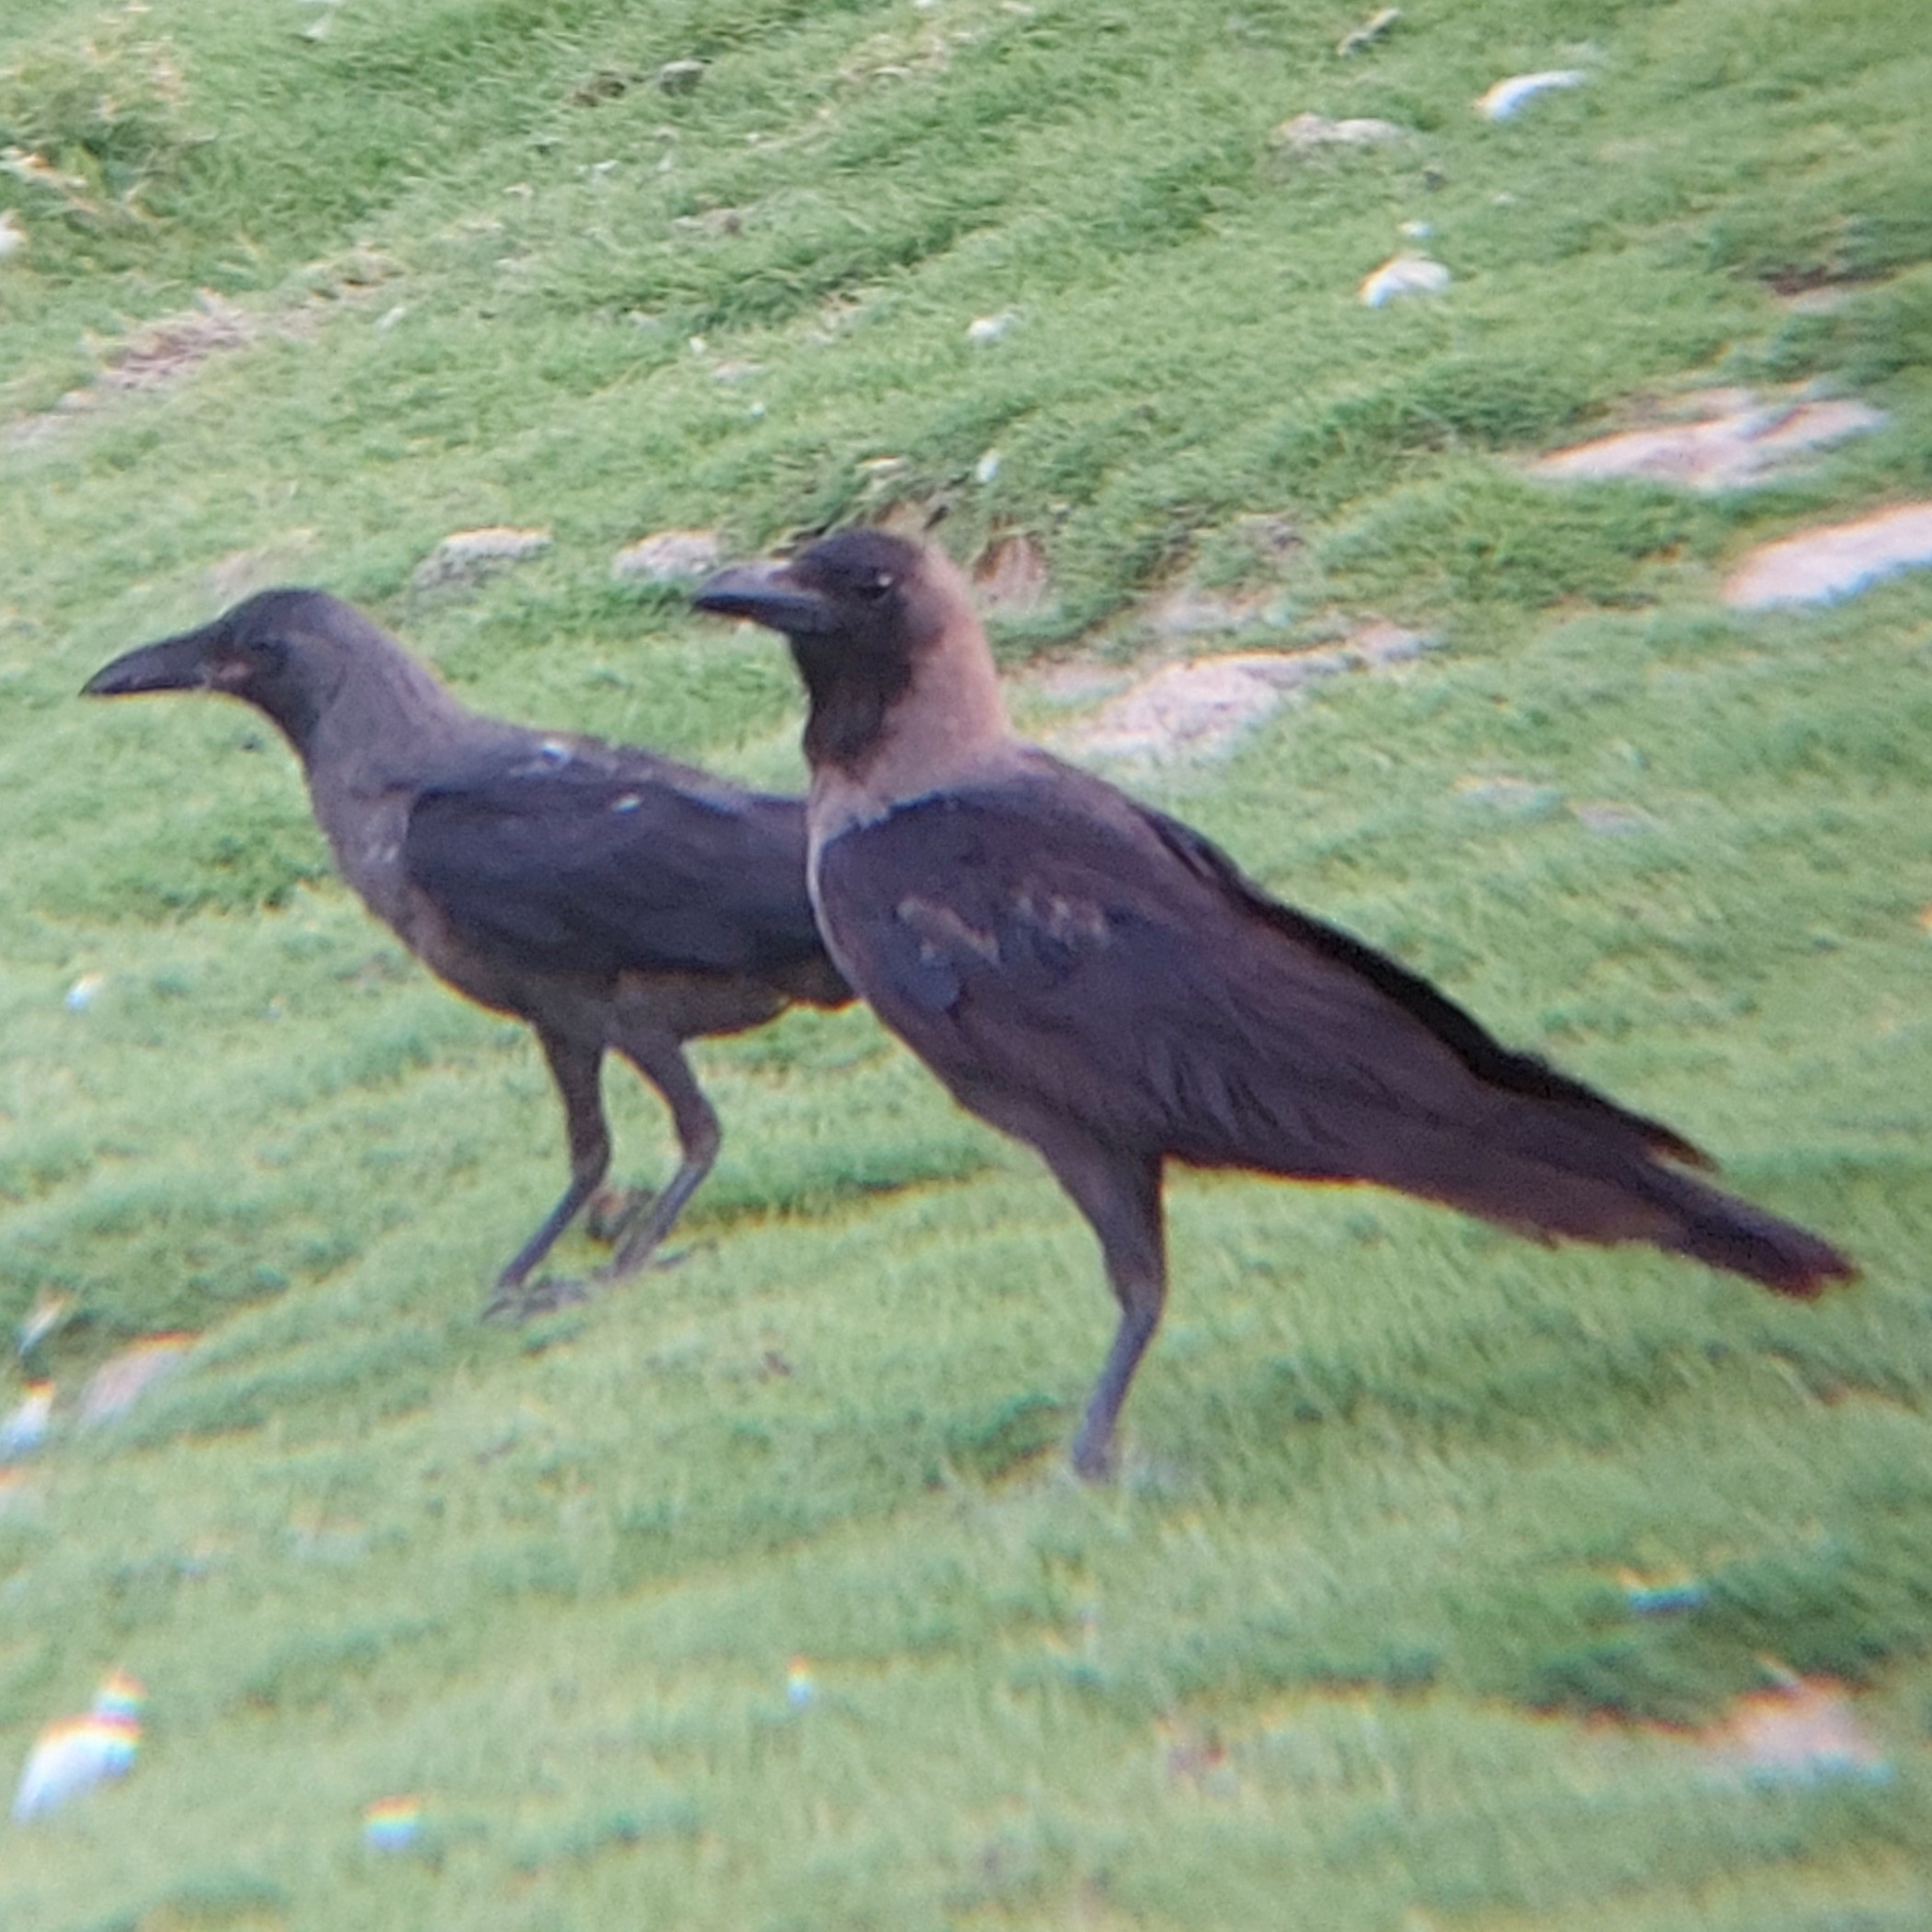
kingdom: Animalia
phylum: Chordata
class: Aves
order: Passeriformes
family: Corvidae
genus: Corvus
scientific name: Corvus splendens
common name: House crow
